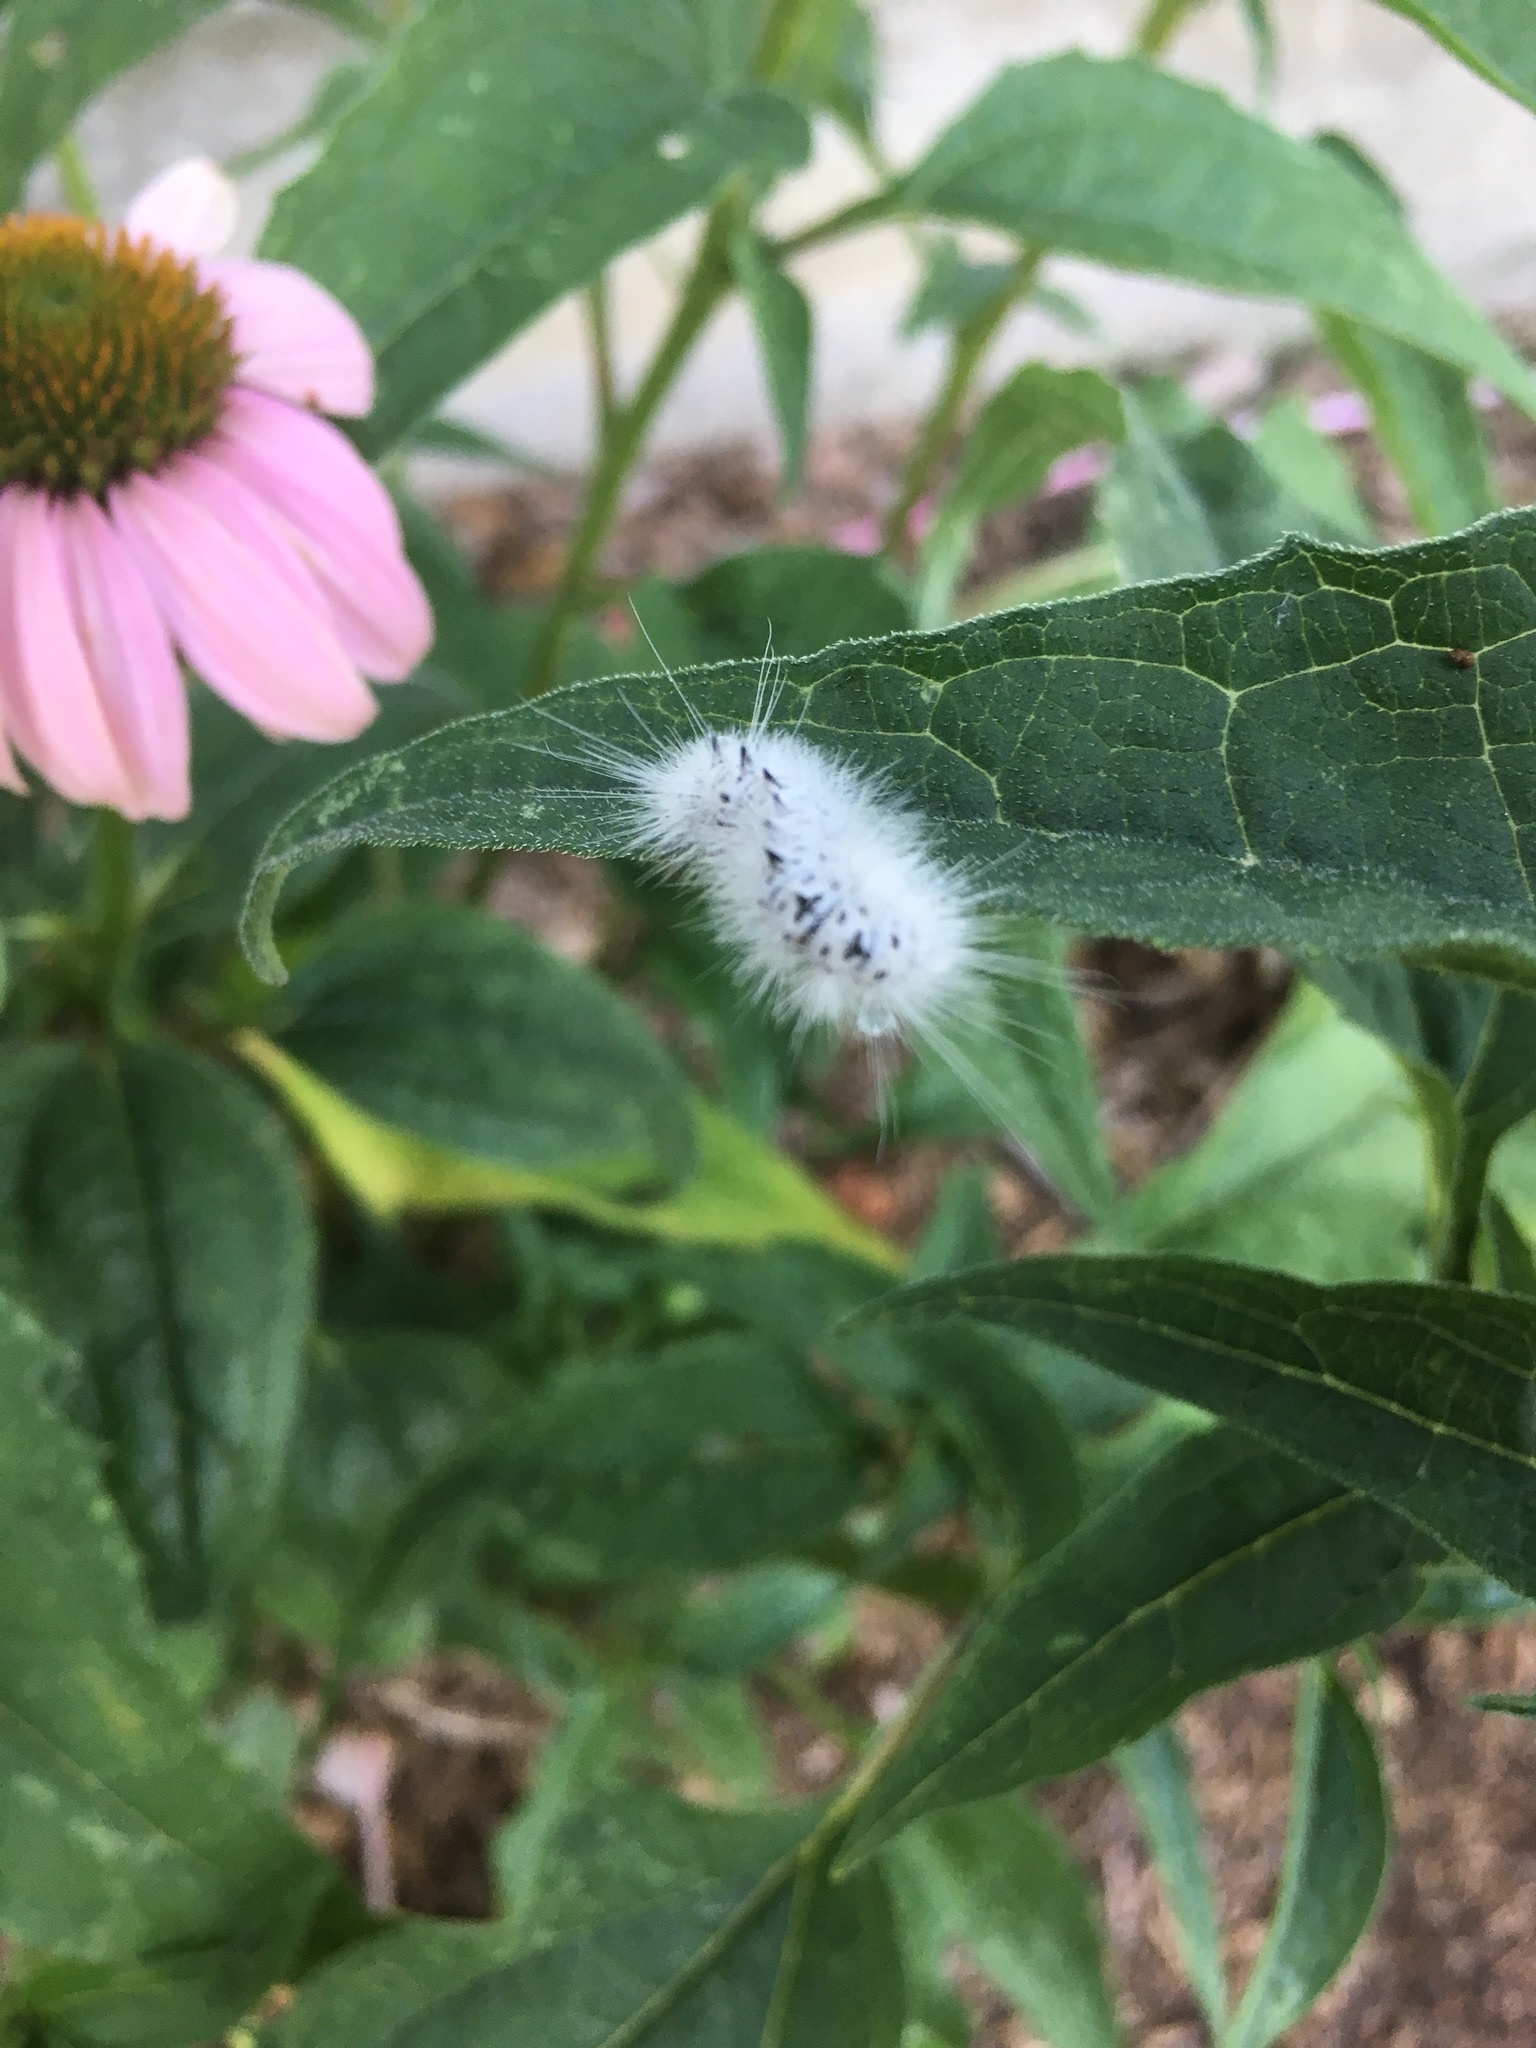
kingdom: Animalia
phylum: Arthropoda
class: Insecta
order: Lepidoptera
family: Erebidae
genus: Lophocampa
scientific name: Lophocampa caryae
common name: Hickory tussock moth
